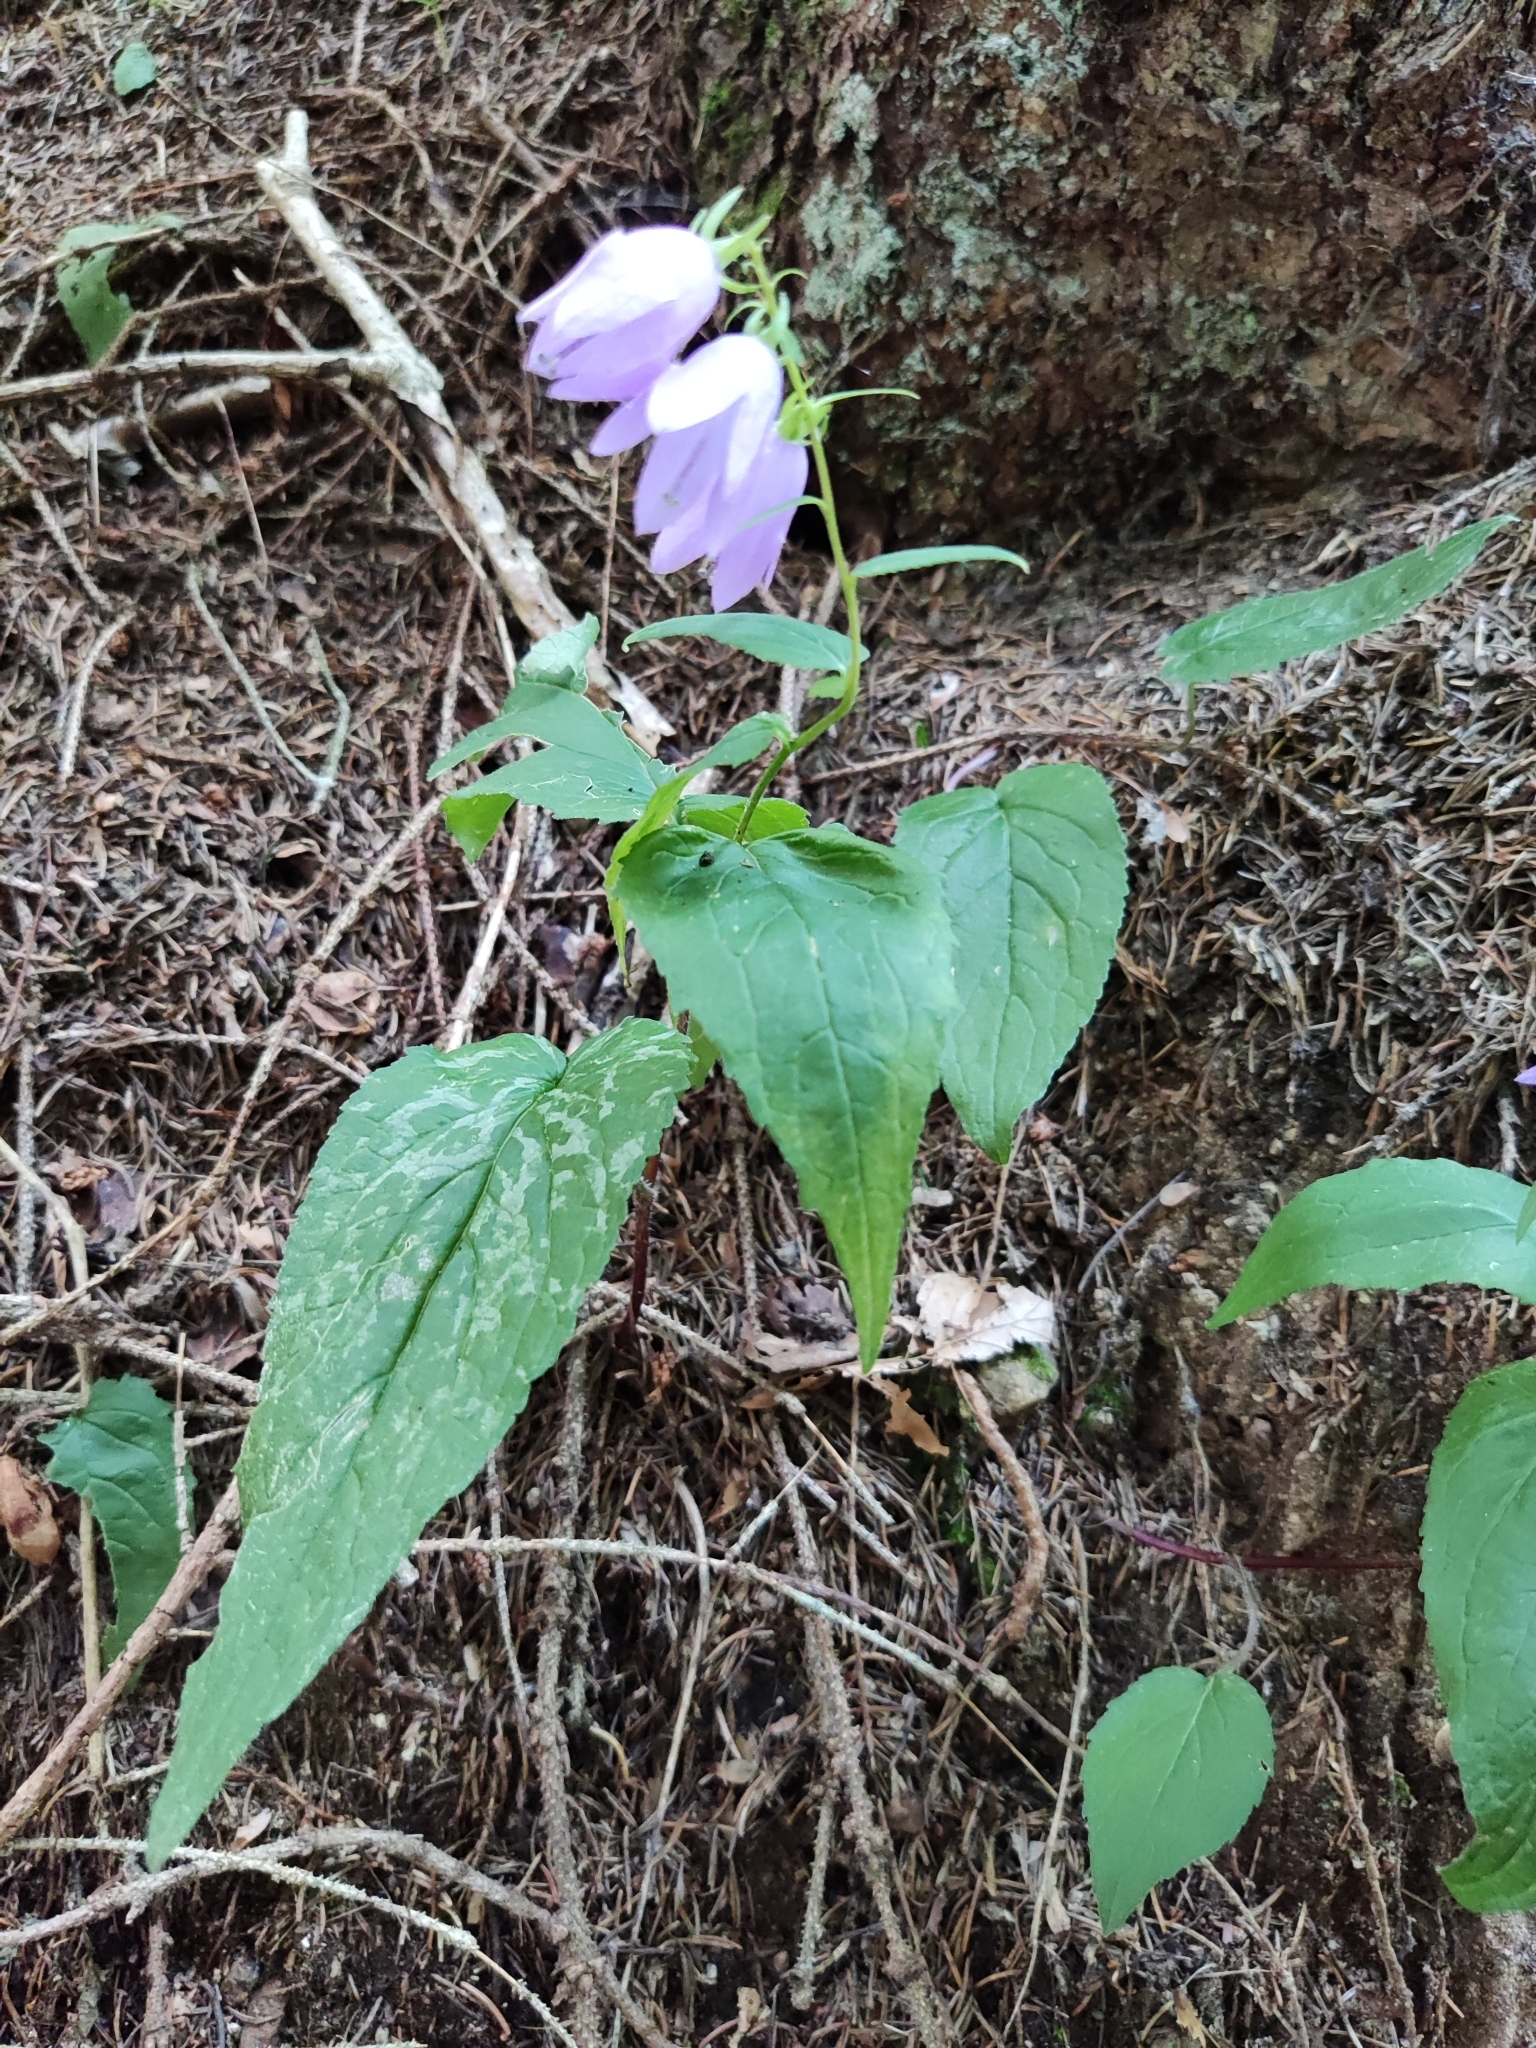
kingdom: Plantae
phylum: Tracheophyta
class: Magnoliopsida
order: Asterales
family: Campanulaceae
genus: Campanula
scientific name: Campanula rapunculoides
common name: Creeping bellflower
